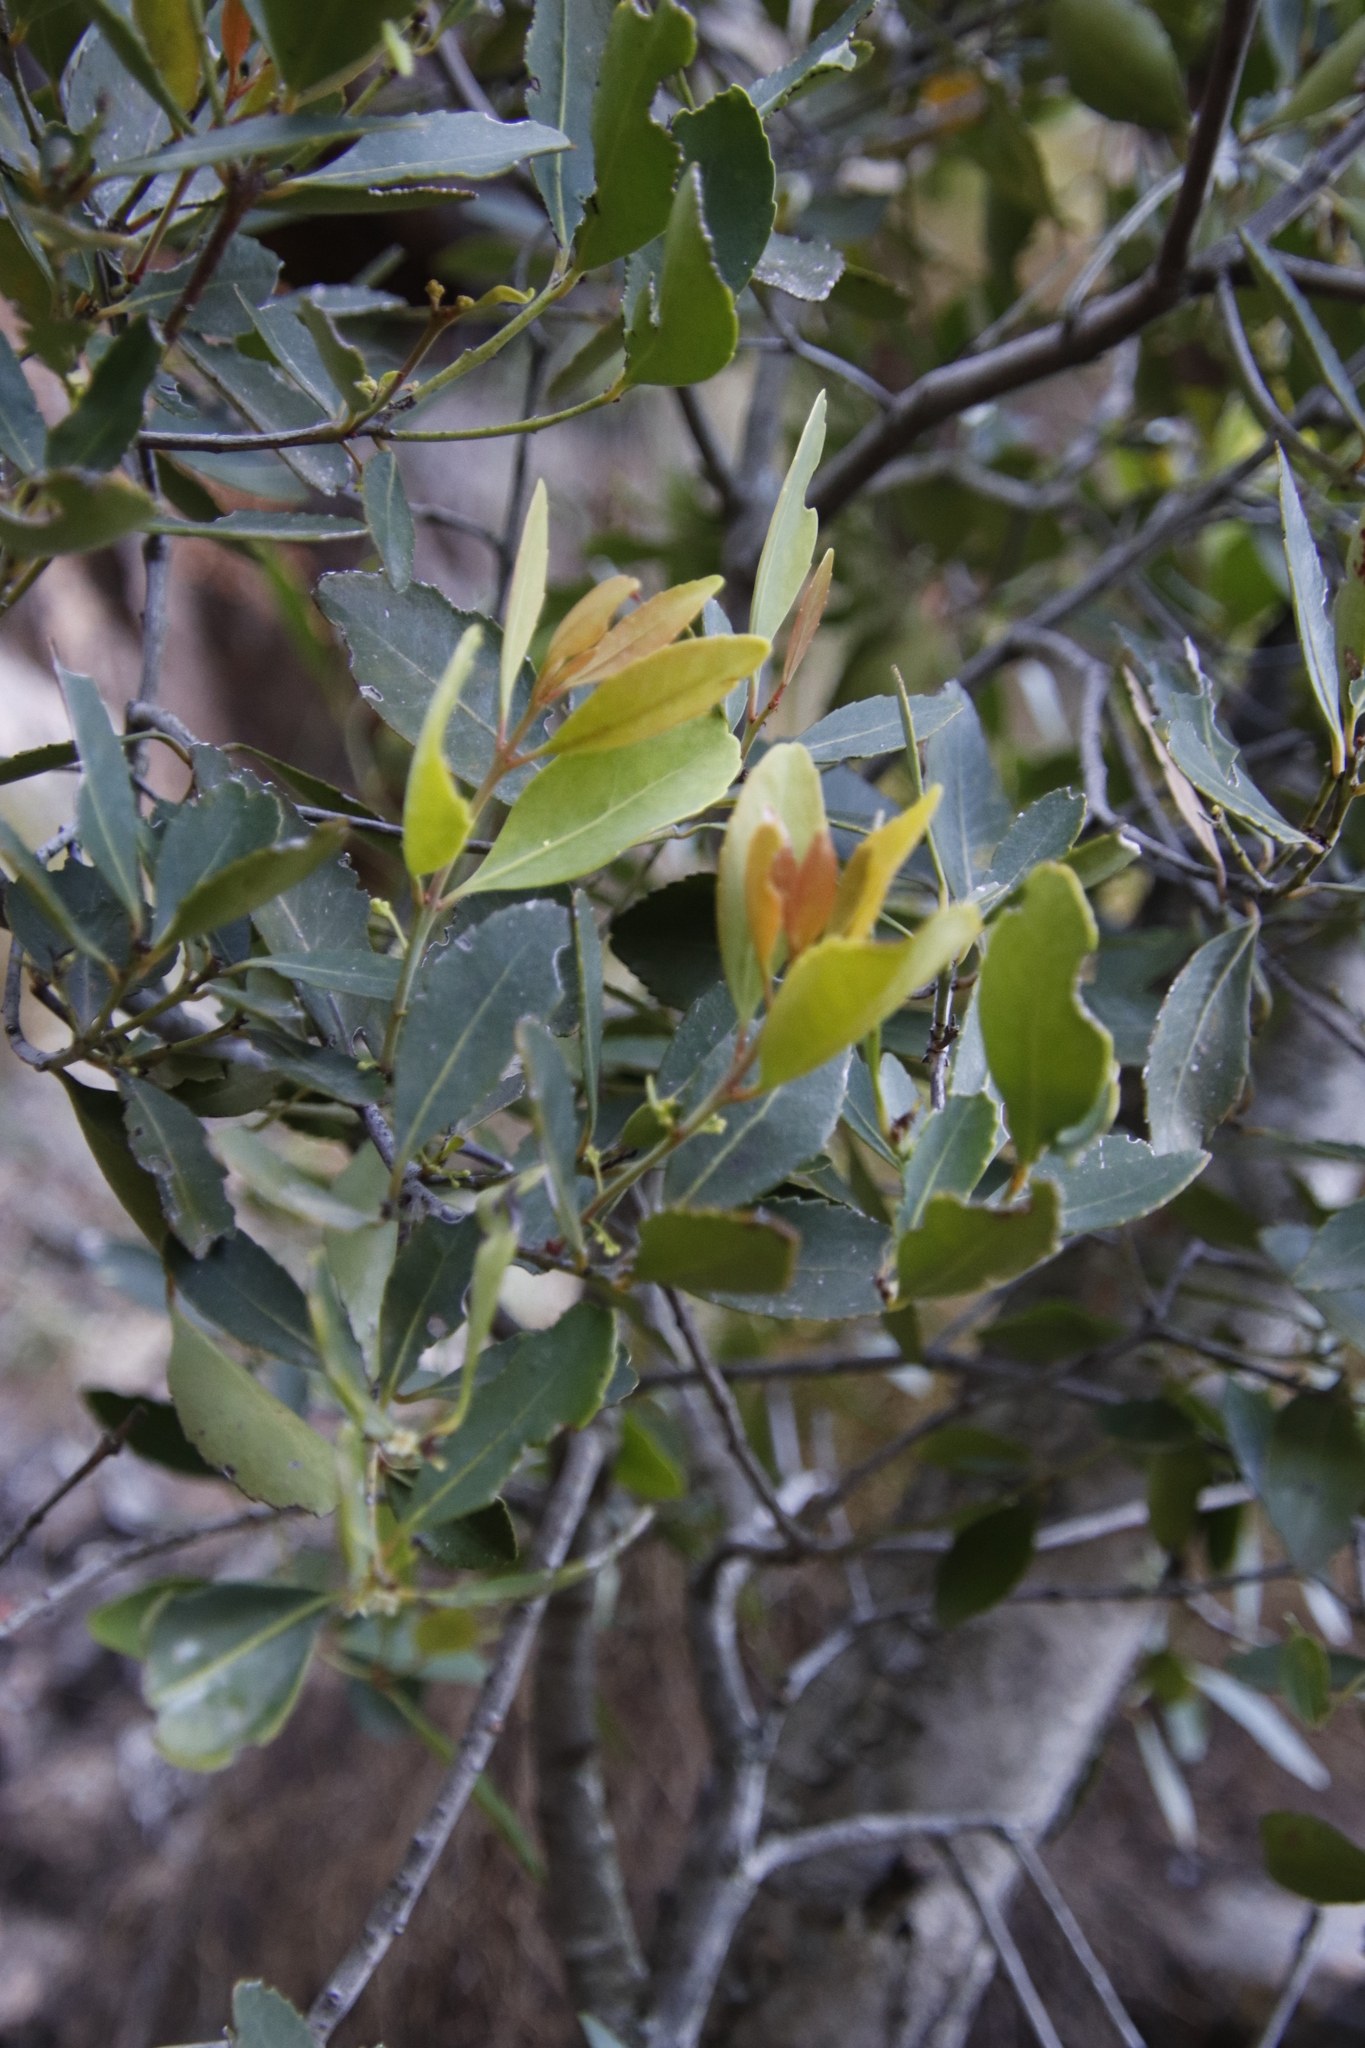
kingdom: Plantae
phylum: Tracheophyta
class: Magnoliopsida
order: Celastrales
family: Celastraceae
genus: Elaeodendron
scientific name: Elaeodendron schinoides
